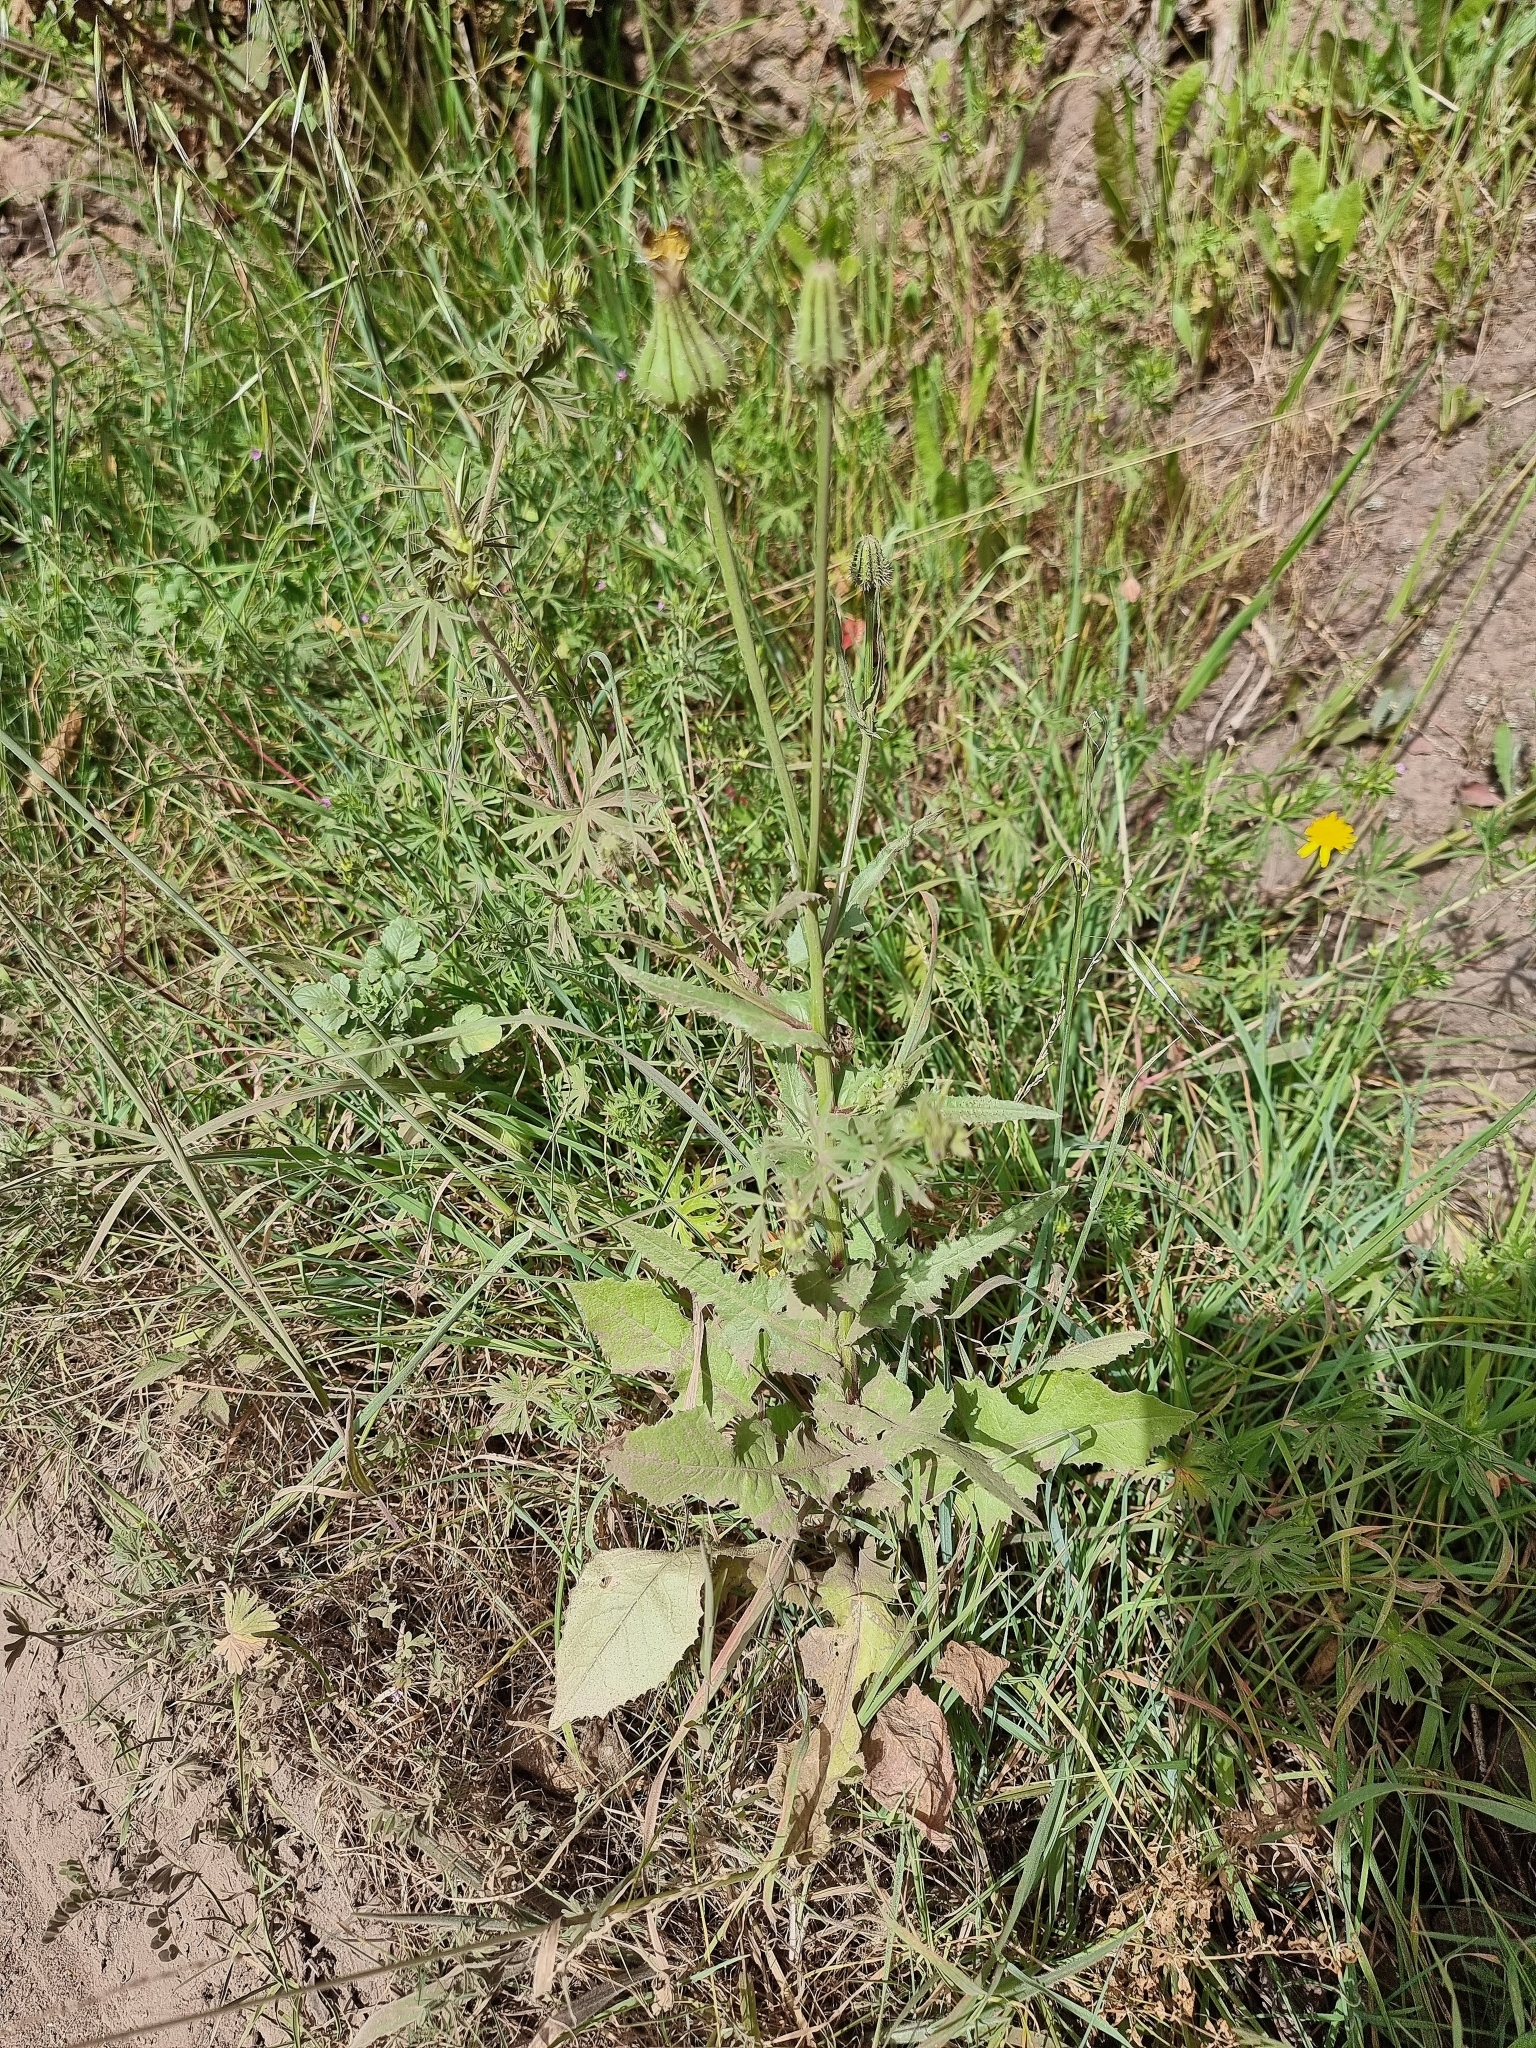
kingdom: Plantae
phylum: Tracheophyta
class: Magnoliopsida
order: Asterales
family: Asteraceae
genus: Urospermum
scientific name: Urospermum picroides
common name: False hawkbit
